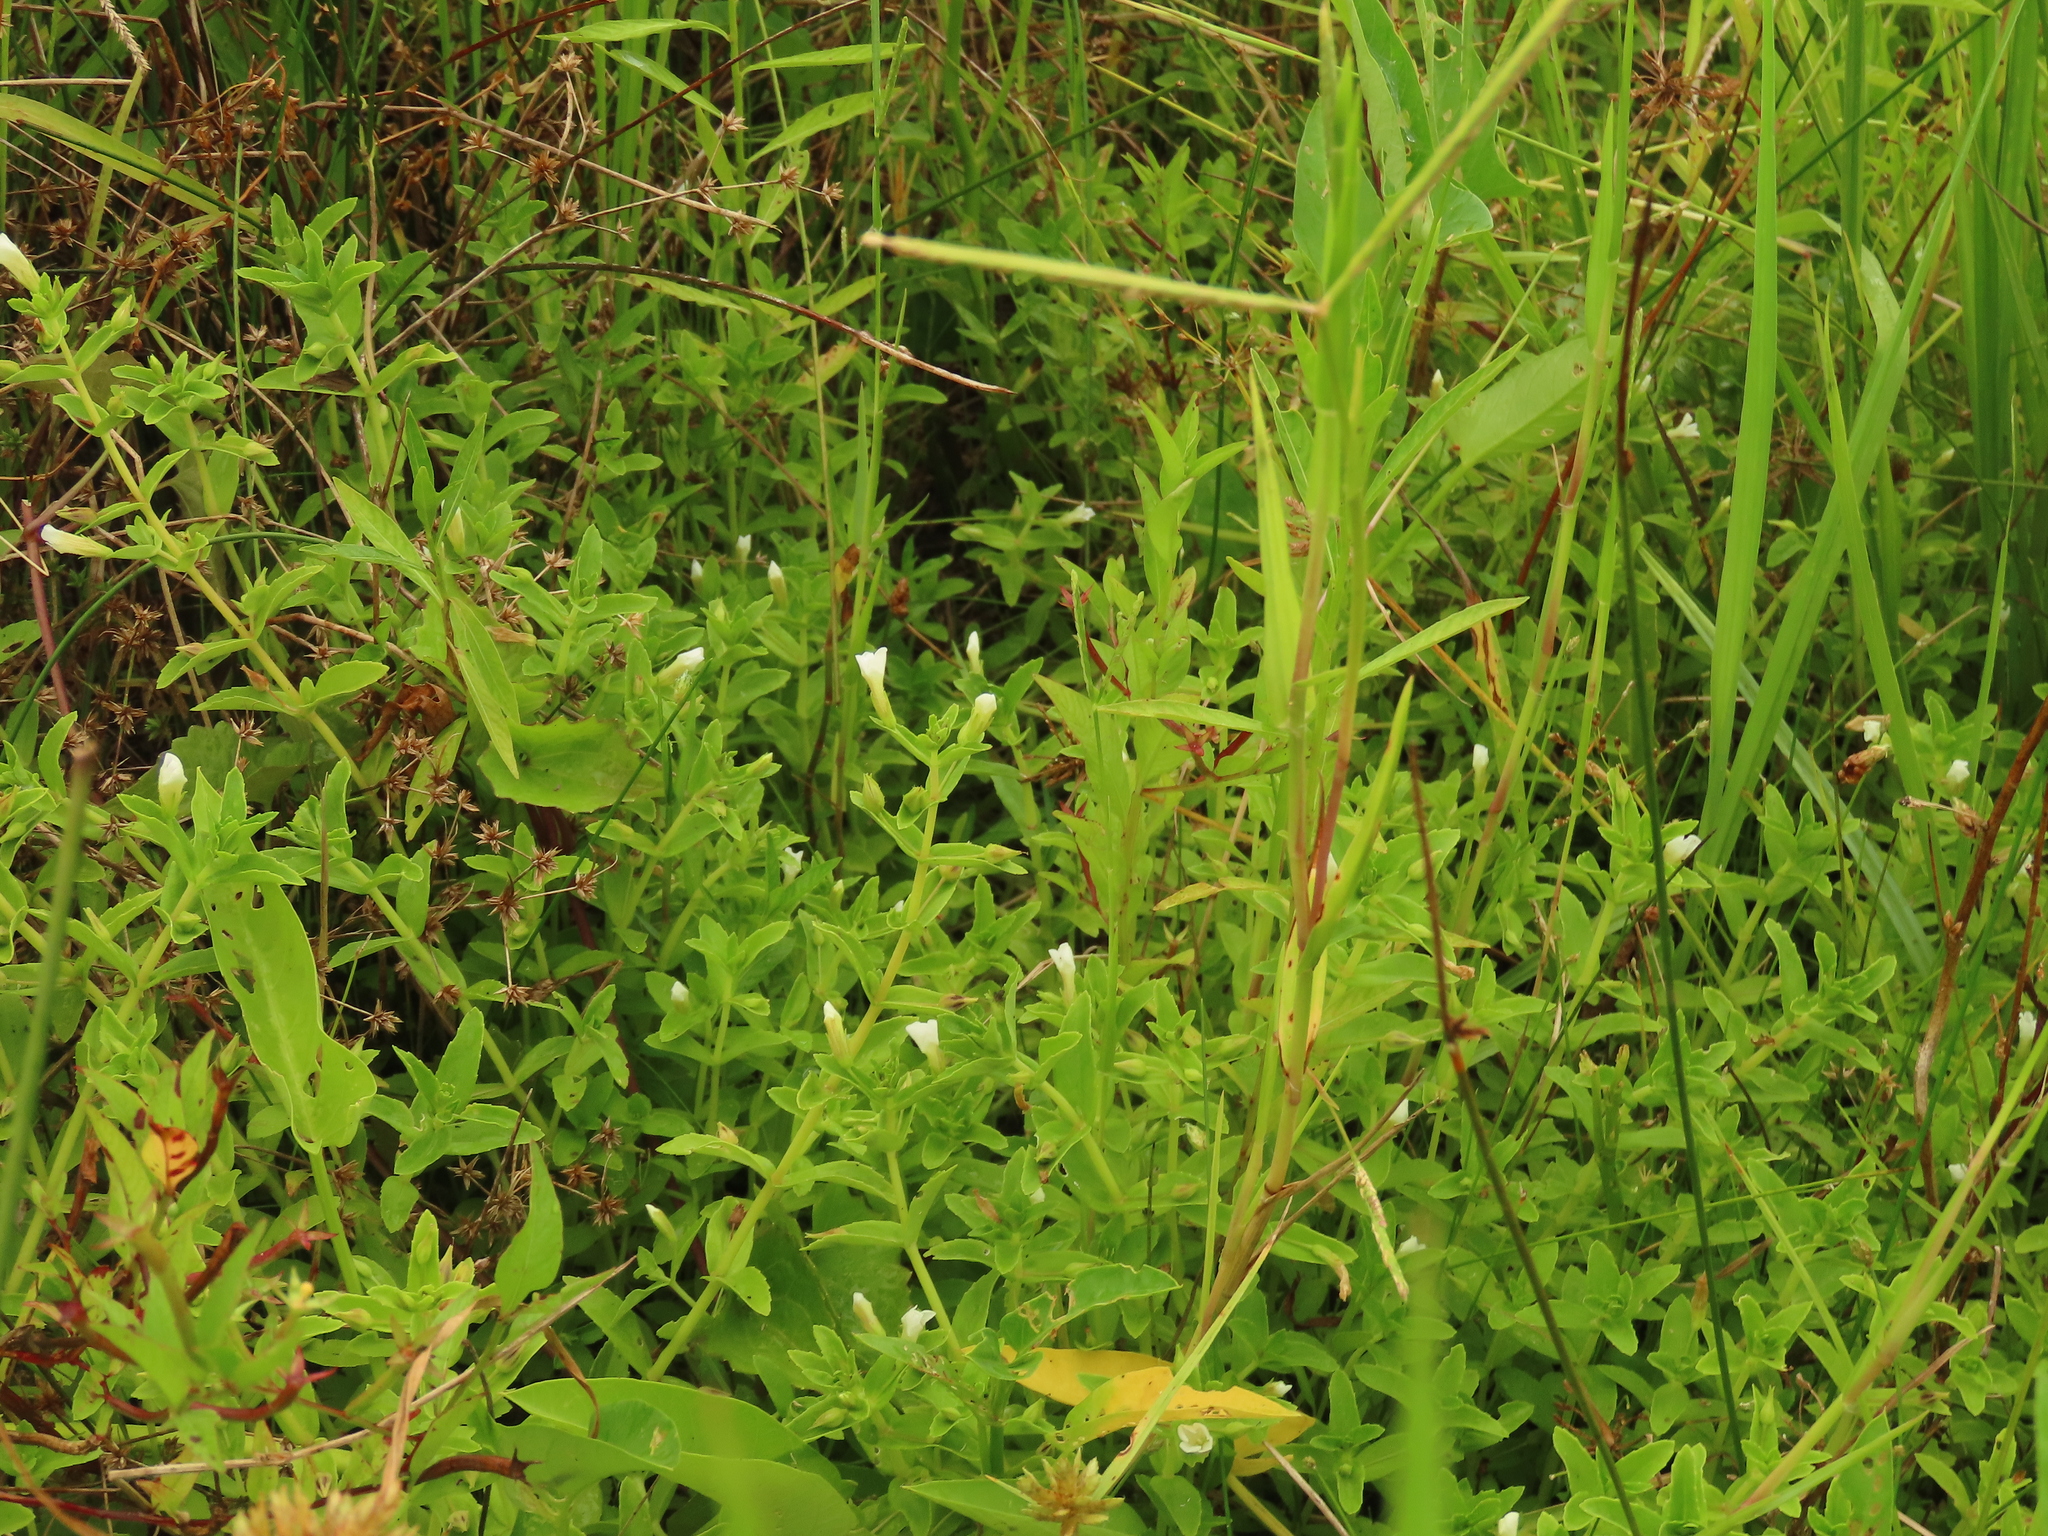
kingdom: Plantae
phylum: Tracheophyta
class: Magnoliopsida
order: Lamiales
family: Plantaginaceae
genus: Limnophila
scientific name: Limnophila aromatica
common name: Finger grass
